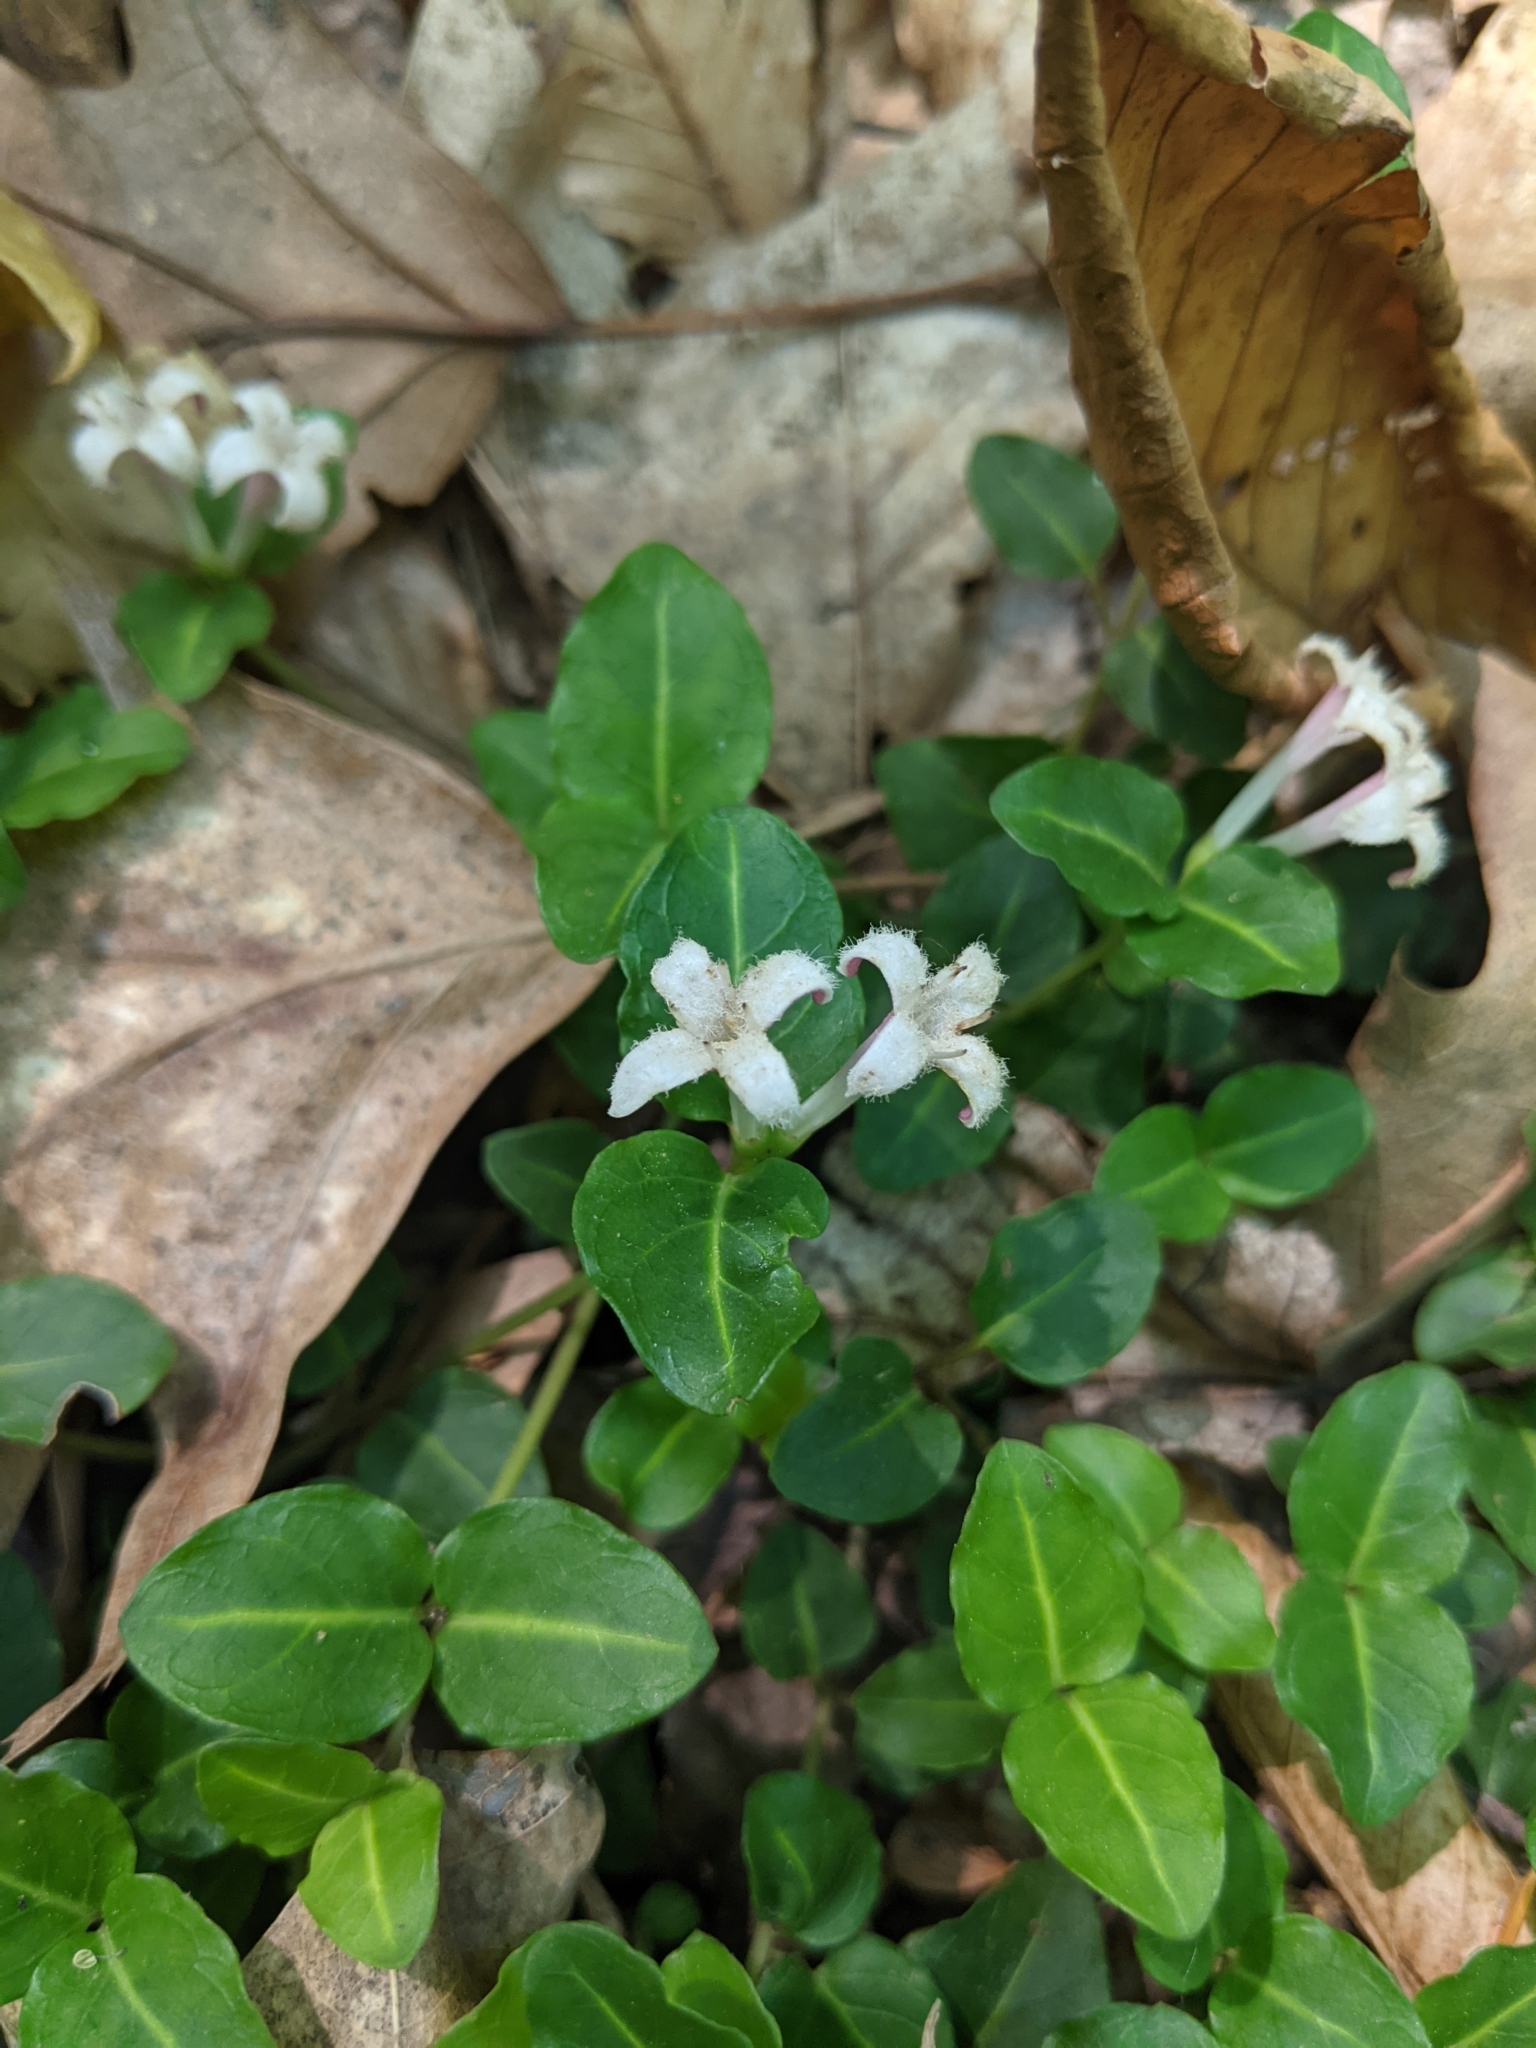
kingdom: Plantae
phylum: Tracheophyta
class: Magnoliopsida
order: Gentianales
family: Rubiaceae
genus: Mitchella
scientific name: Mitchella repens
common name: Partridge-berry
